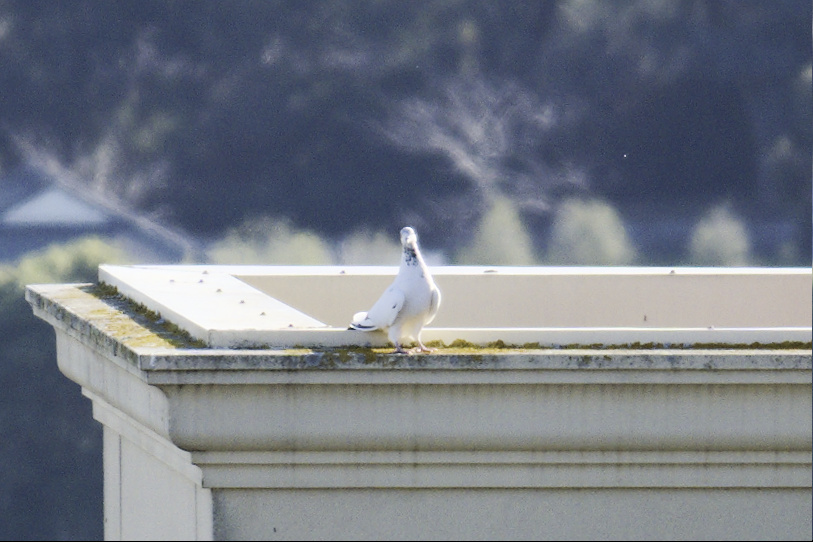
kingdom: Animalia
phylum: Chordata
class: Aves
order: Columbiformes
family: Columbidae
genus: Columba
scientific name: Columba livia
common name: Rock pigeon
